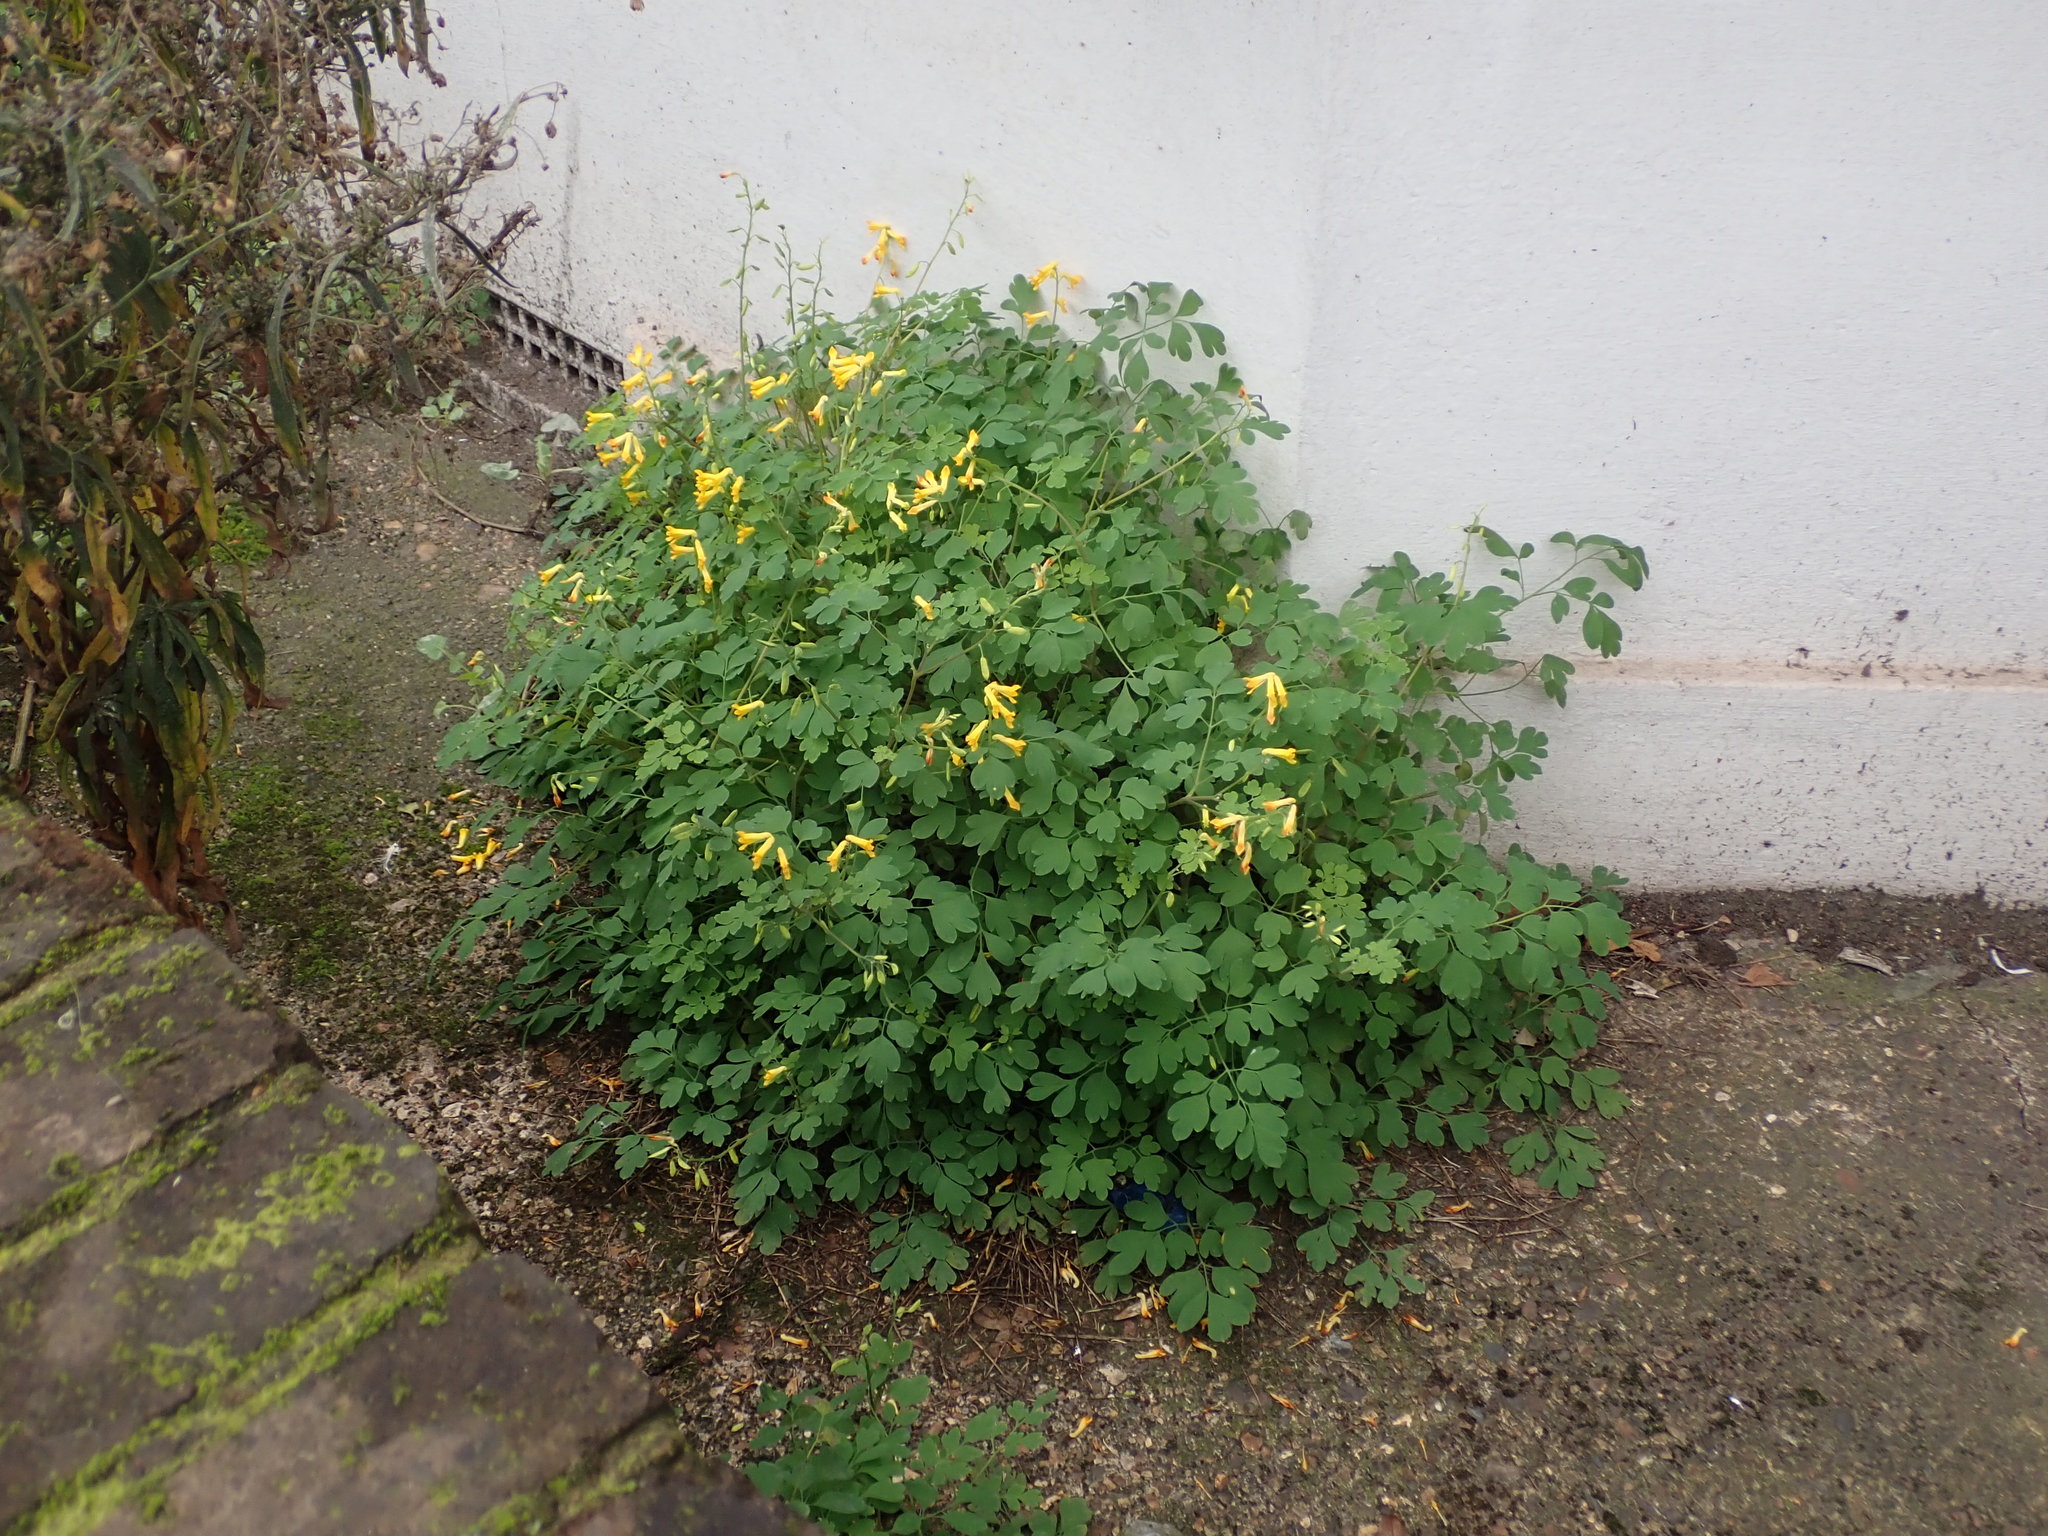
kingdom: Plantae
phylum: Tracheophyta
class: Magnoliopsida
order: Ranunculales
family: Papaveraceae
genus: Pseudofumaria
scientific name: Pseudofumaria lutea
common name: Yellow corydalis
